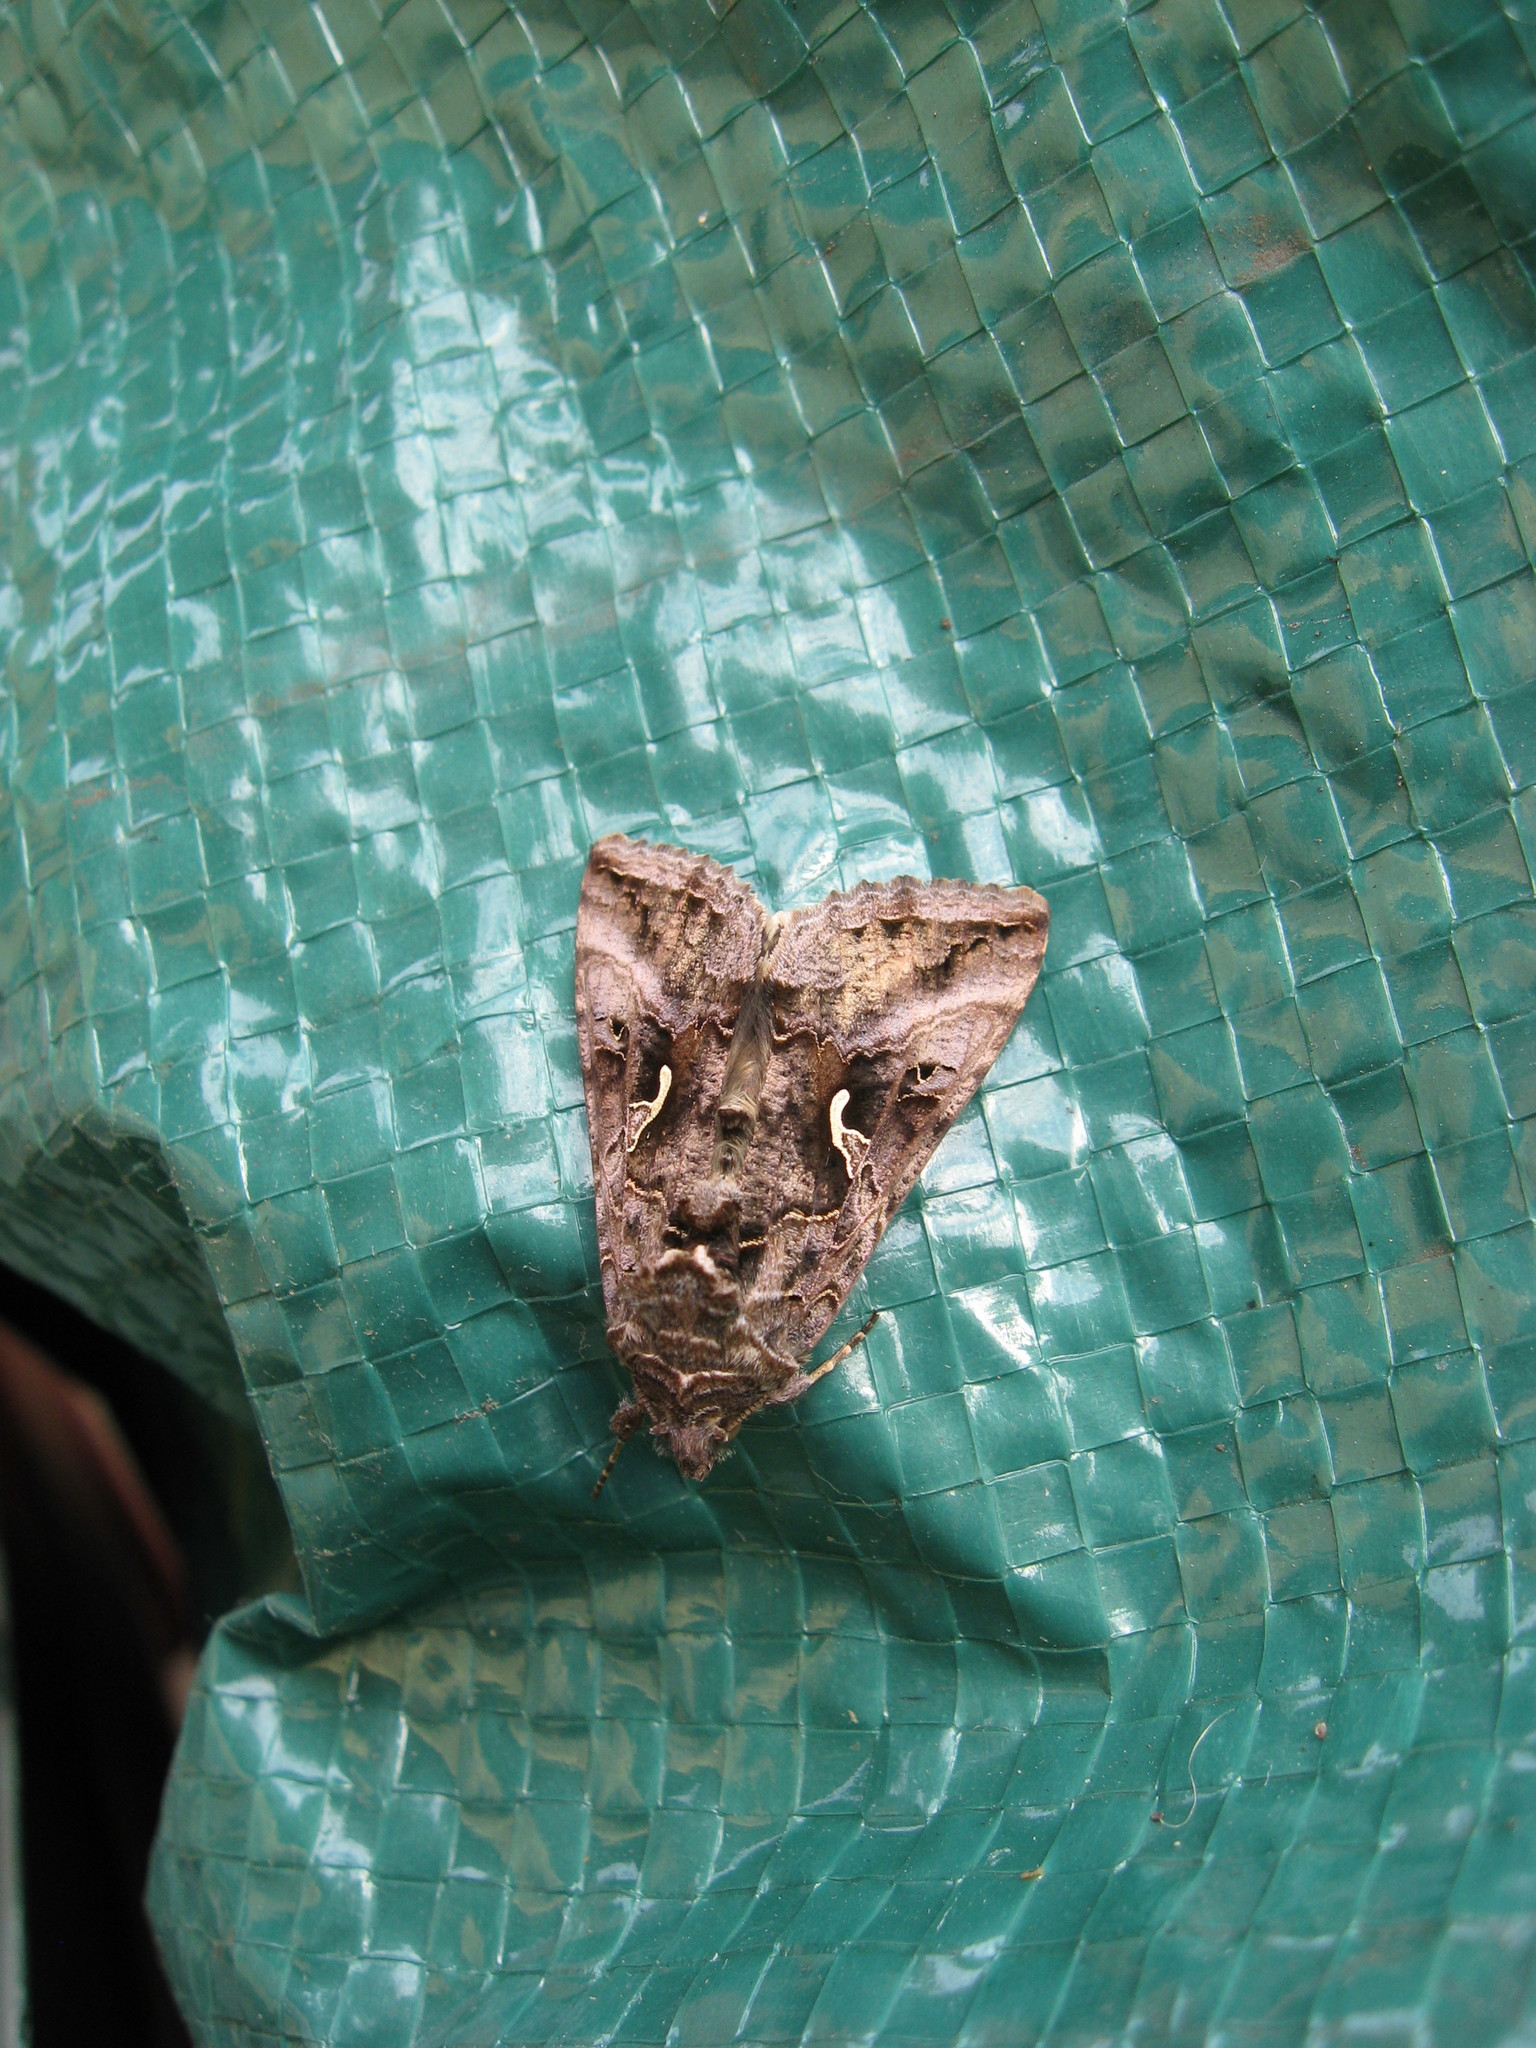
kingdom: Animalia
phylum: Arthropoda
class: Insecta
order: Lepidoptera
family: Noctuidae
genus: Autographa
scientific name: Autographa gamma
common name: Silver y
